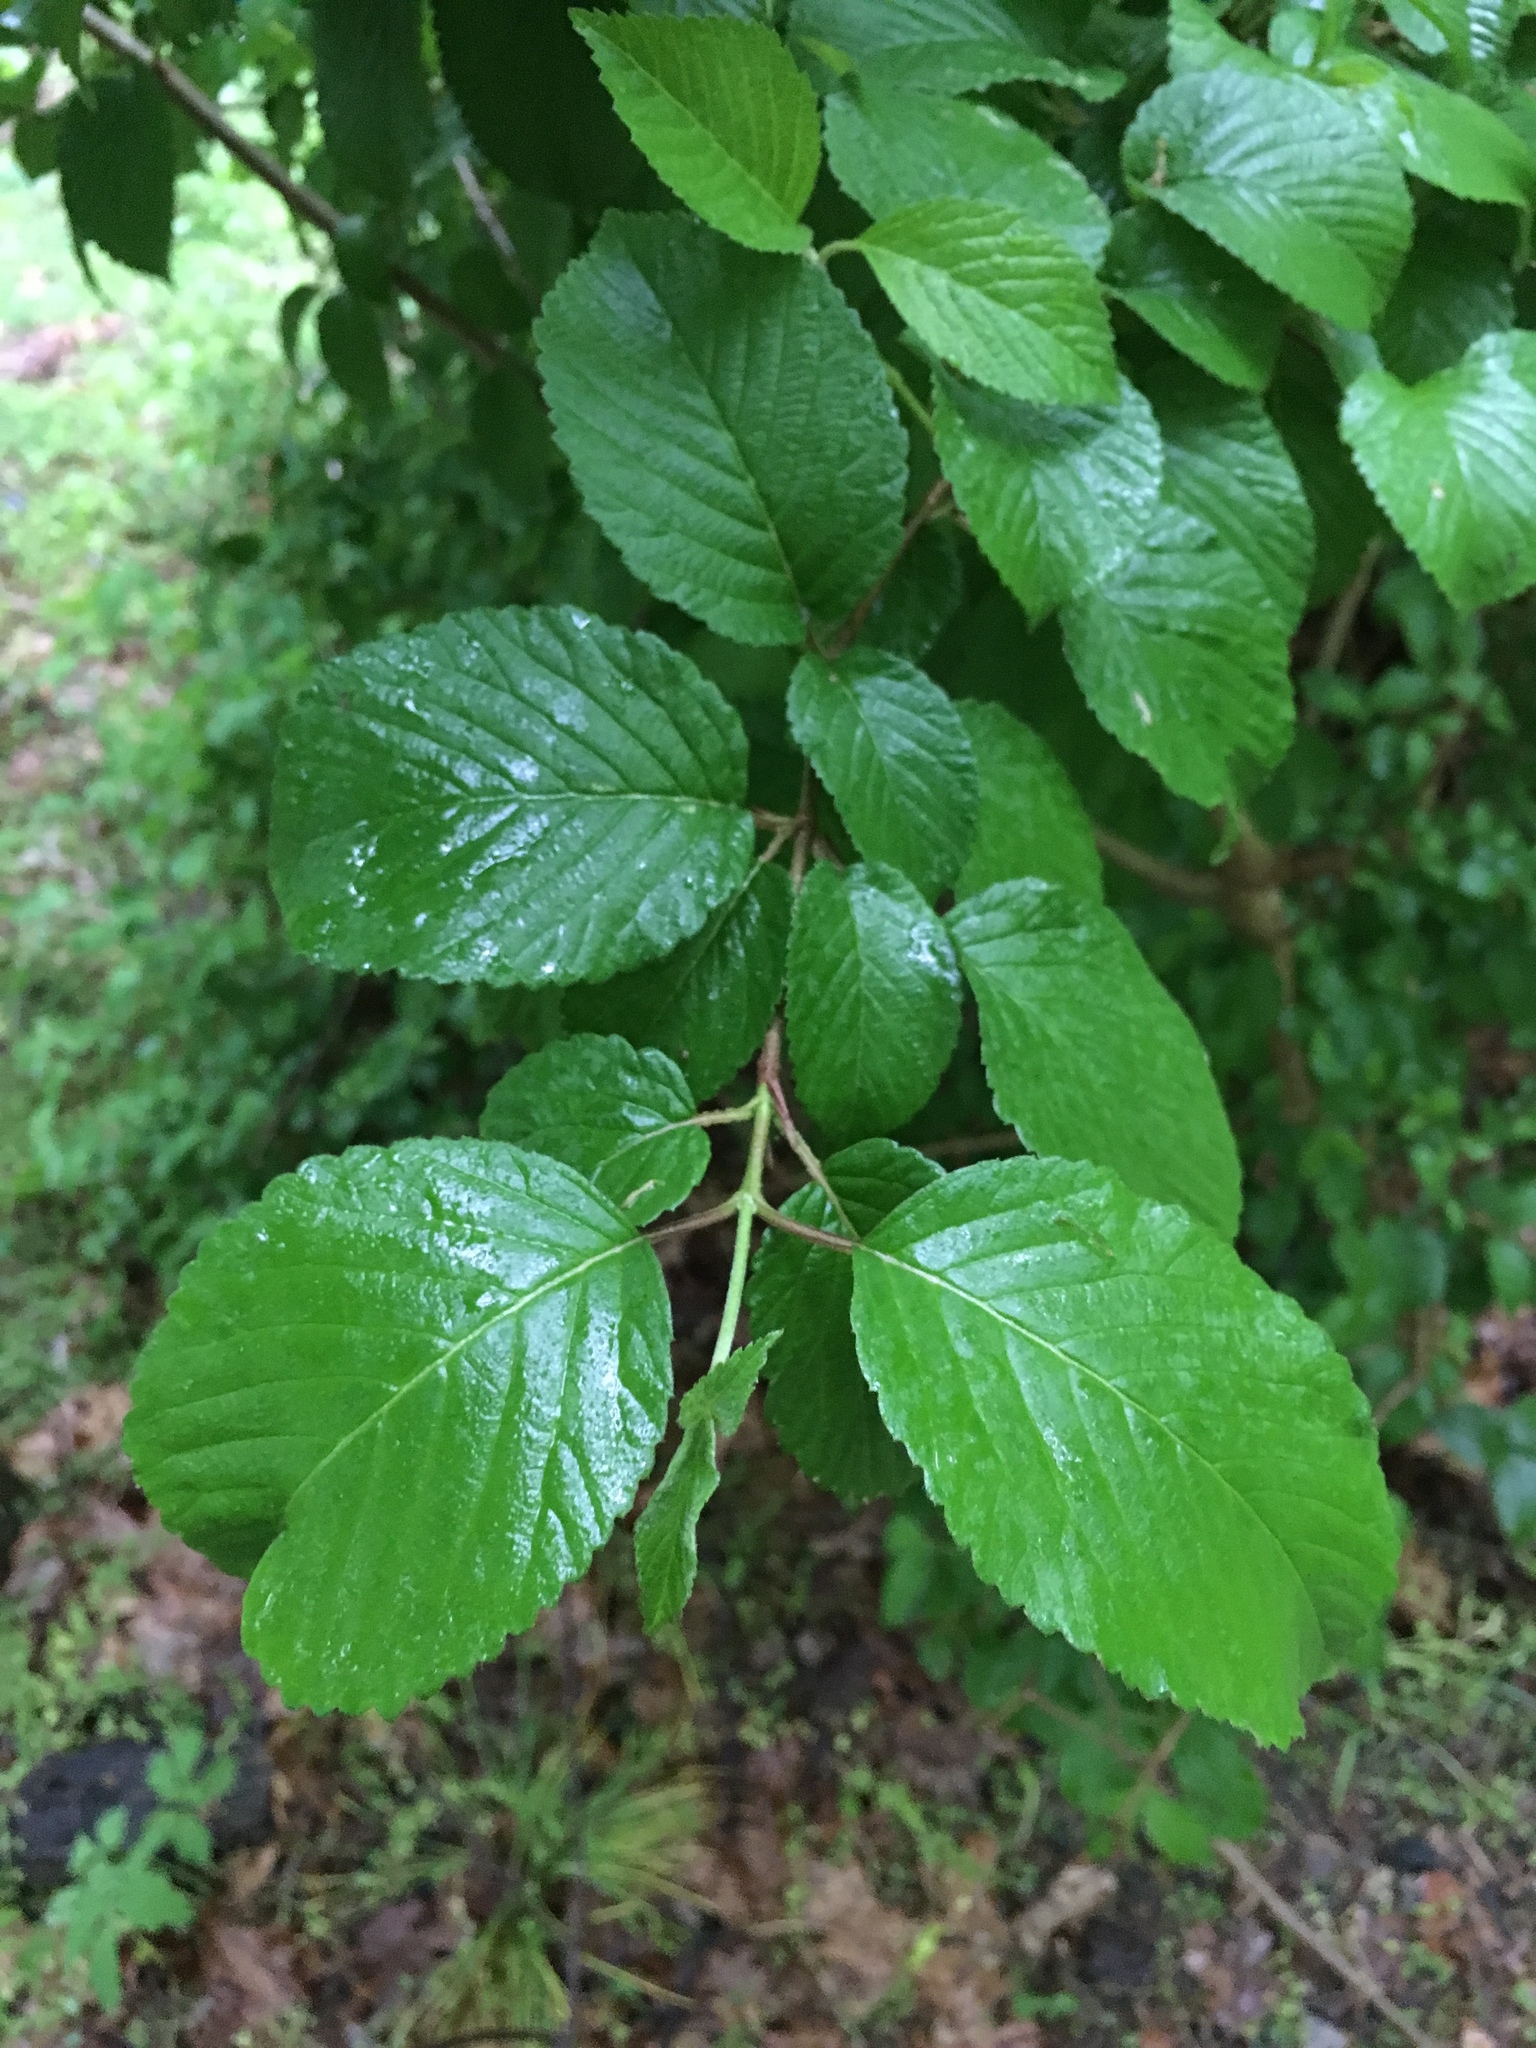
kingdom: Plantae
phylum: Tracheophyta
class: Magnoliopsida
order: Dipsacales
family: Viburnaceae
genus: Viburnum
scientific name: Viburnum plicatum
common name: Japanese snowball
